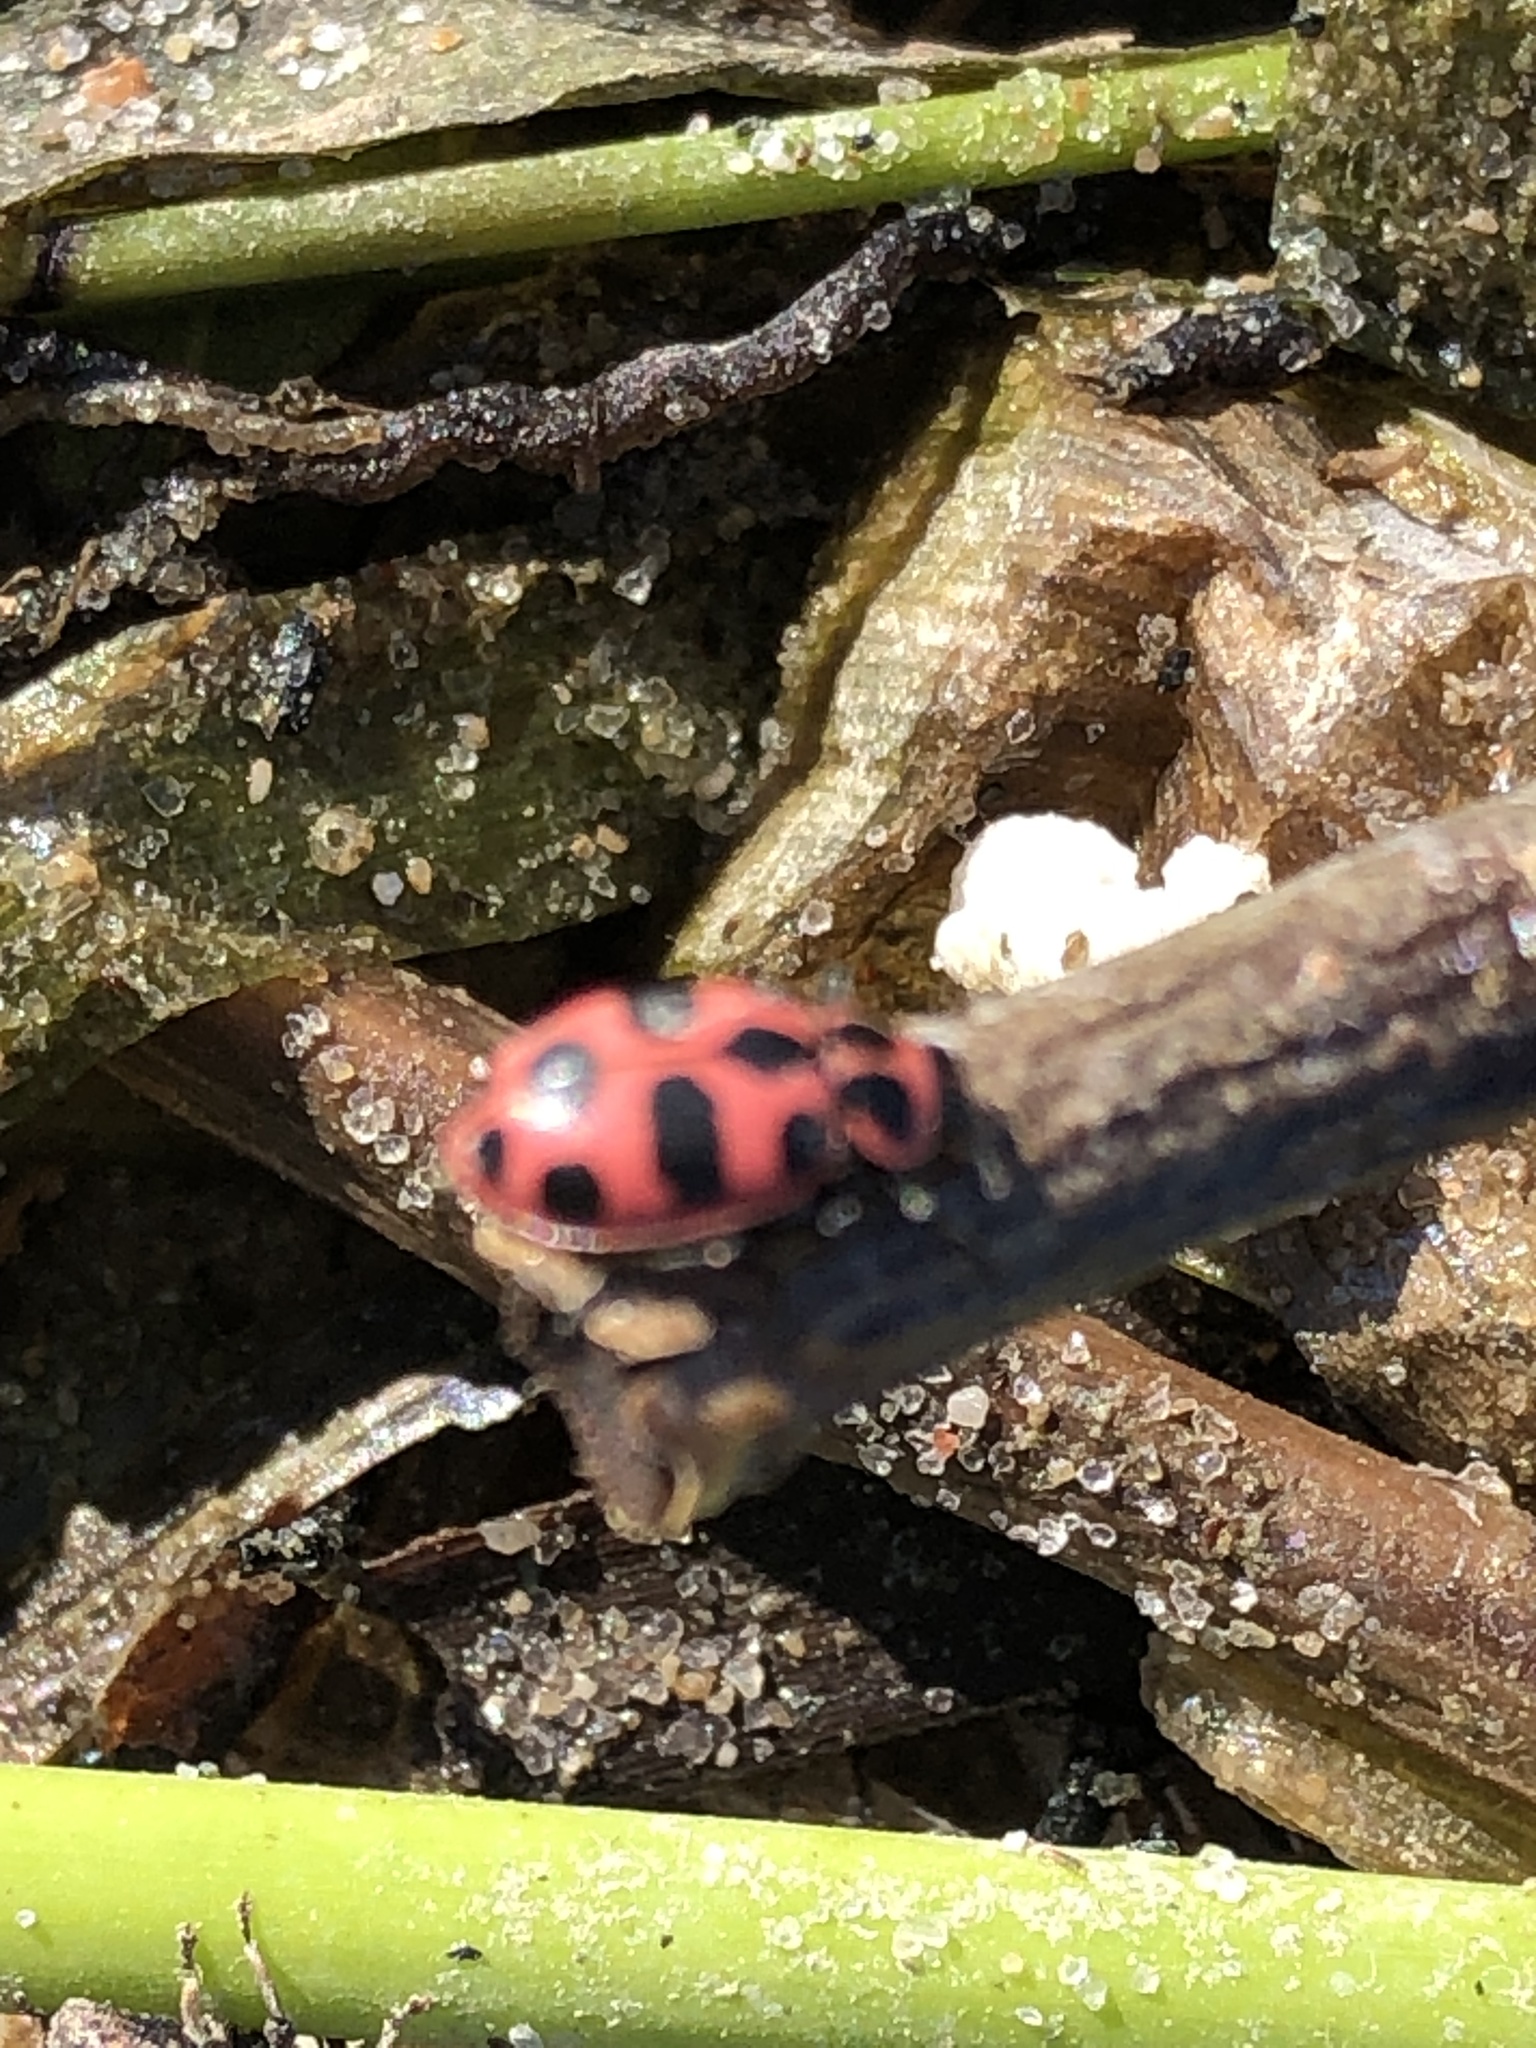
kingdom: Animalia
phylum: Arthropoda
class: Insecta
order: Coleoptera
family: Coccinellidae
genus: Coleomegilla
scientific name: Coleomegilla maculata
